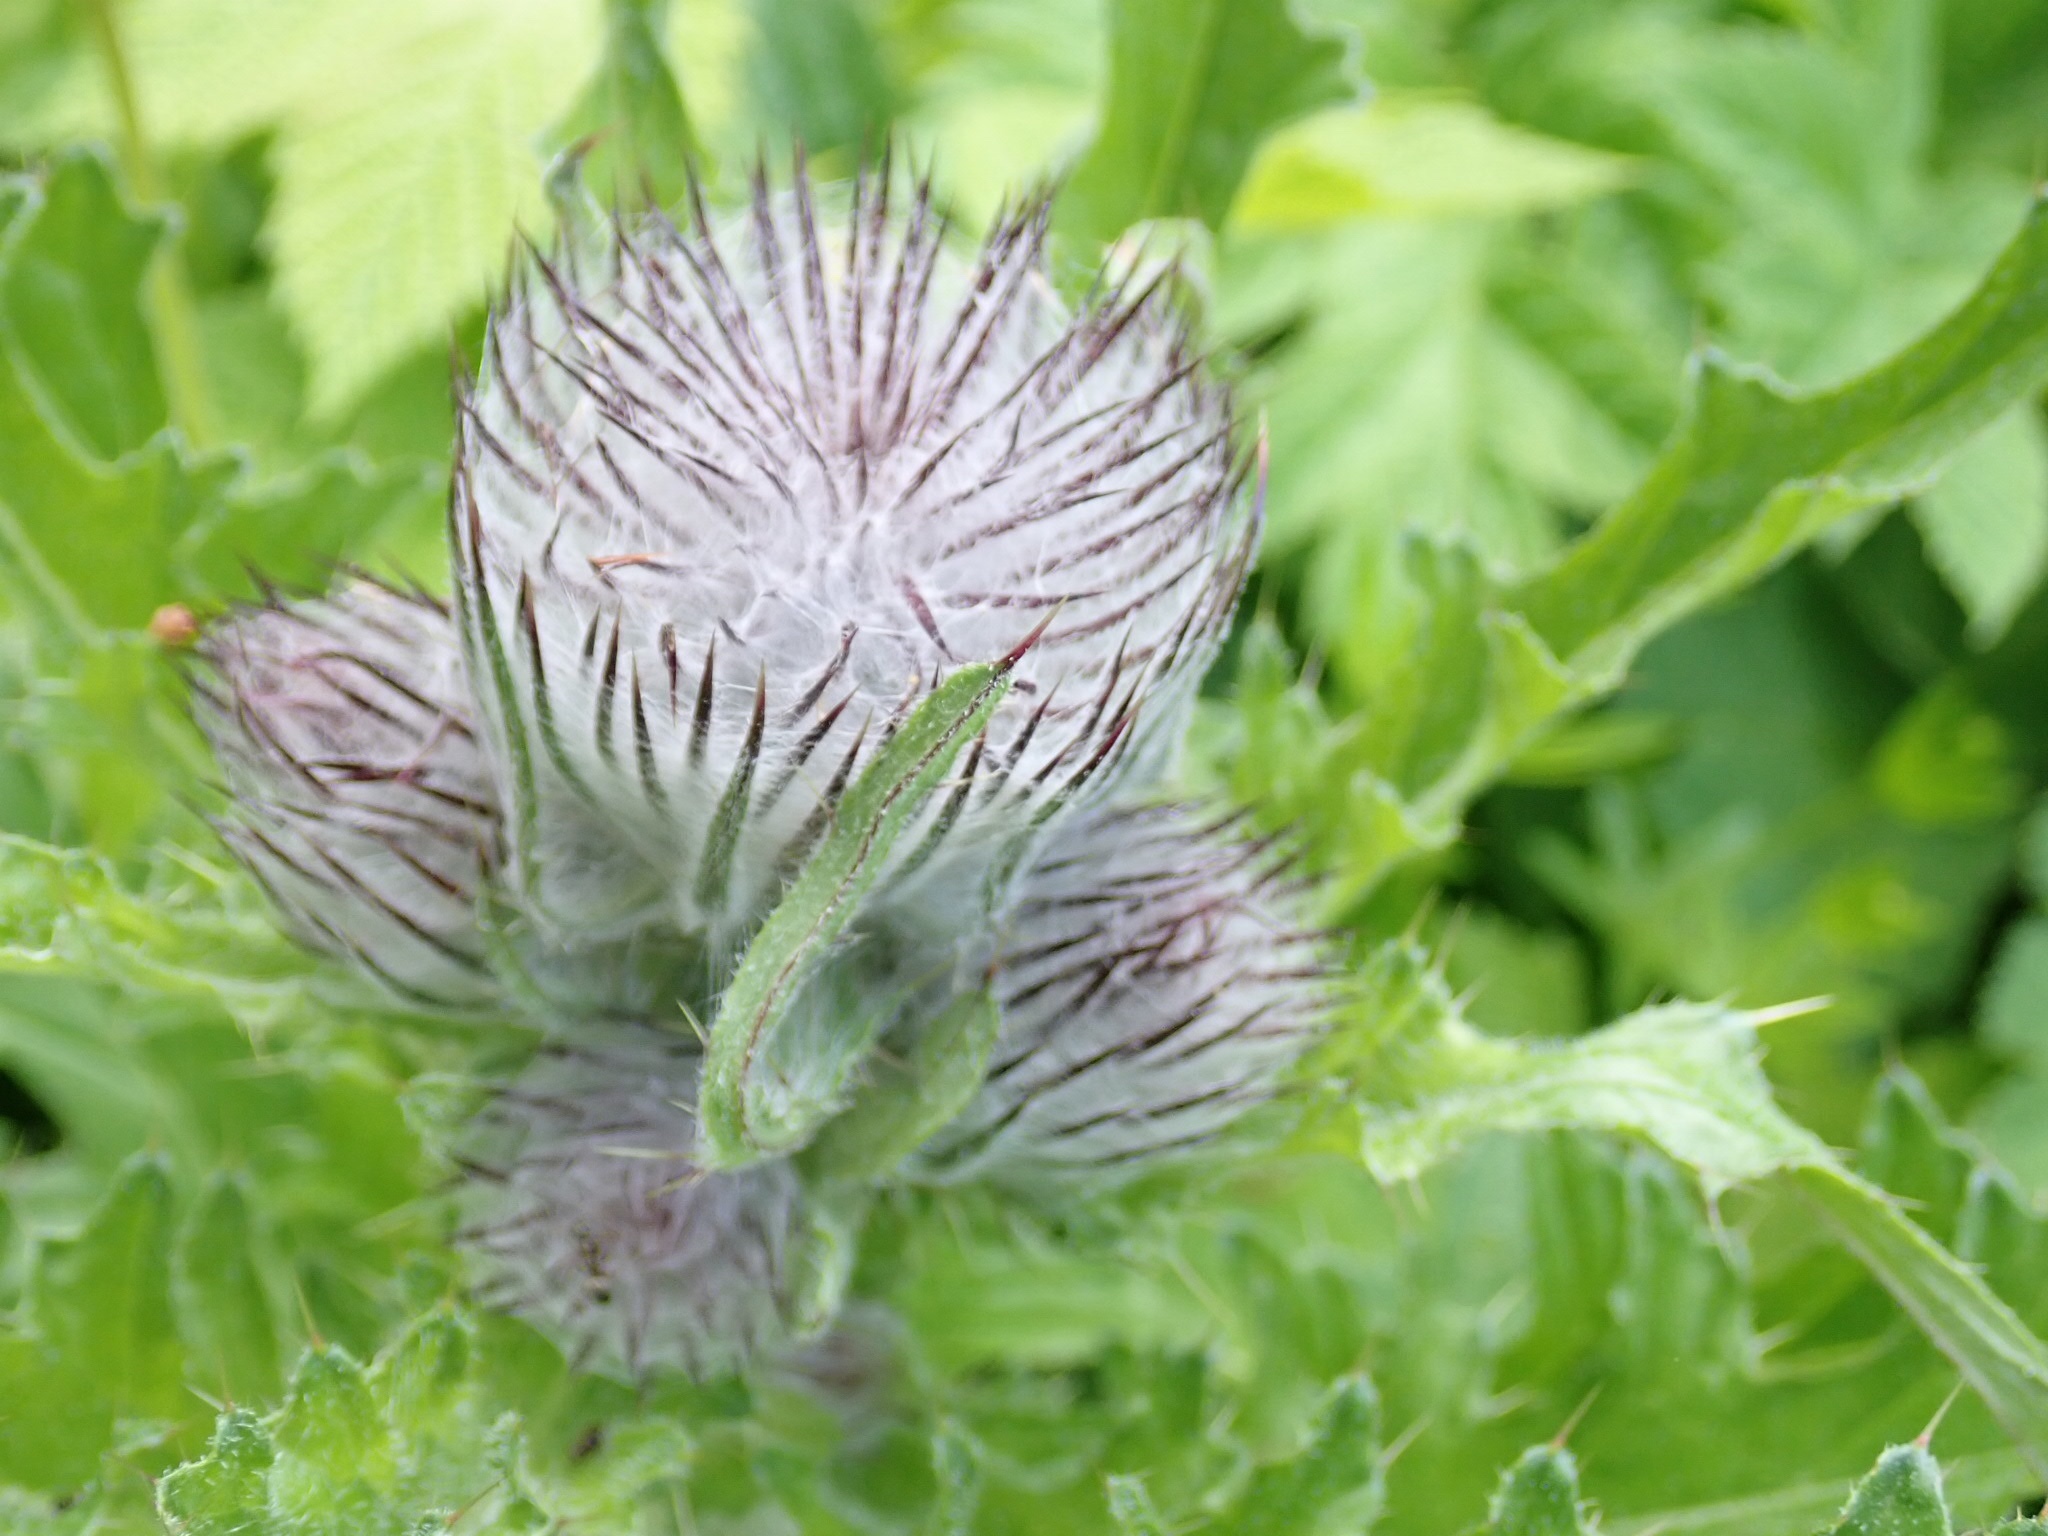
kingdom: Plantae
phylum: Tracheophyta
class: Magnoliopsida
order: Asterales
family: Asteraceae
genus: Cirsium
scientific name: Cirsium edule
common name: Indian thistle
